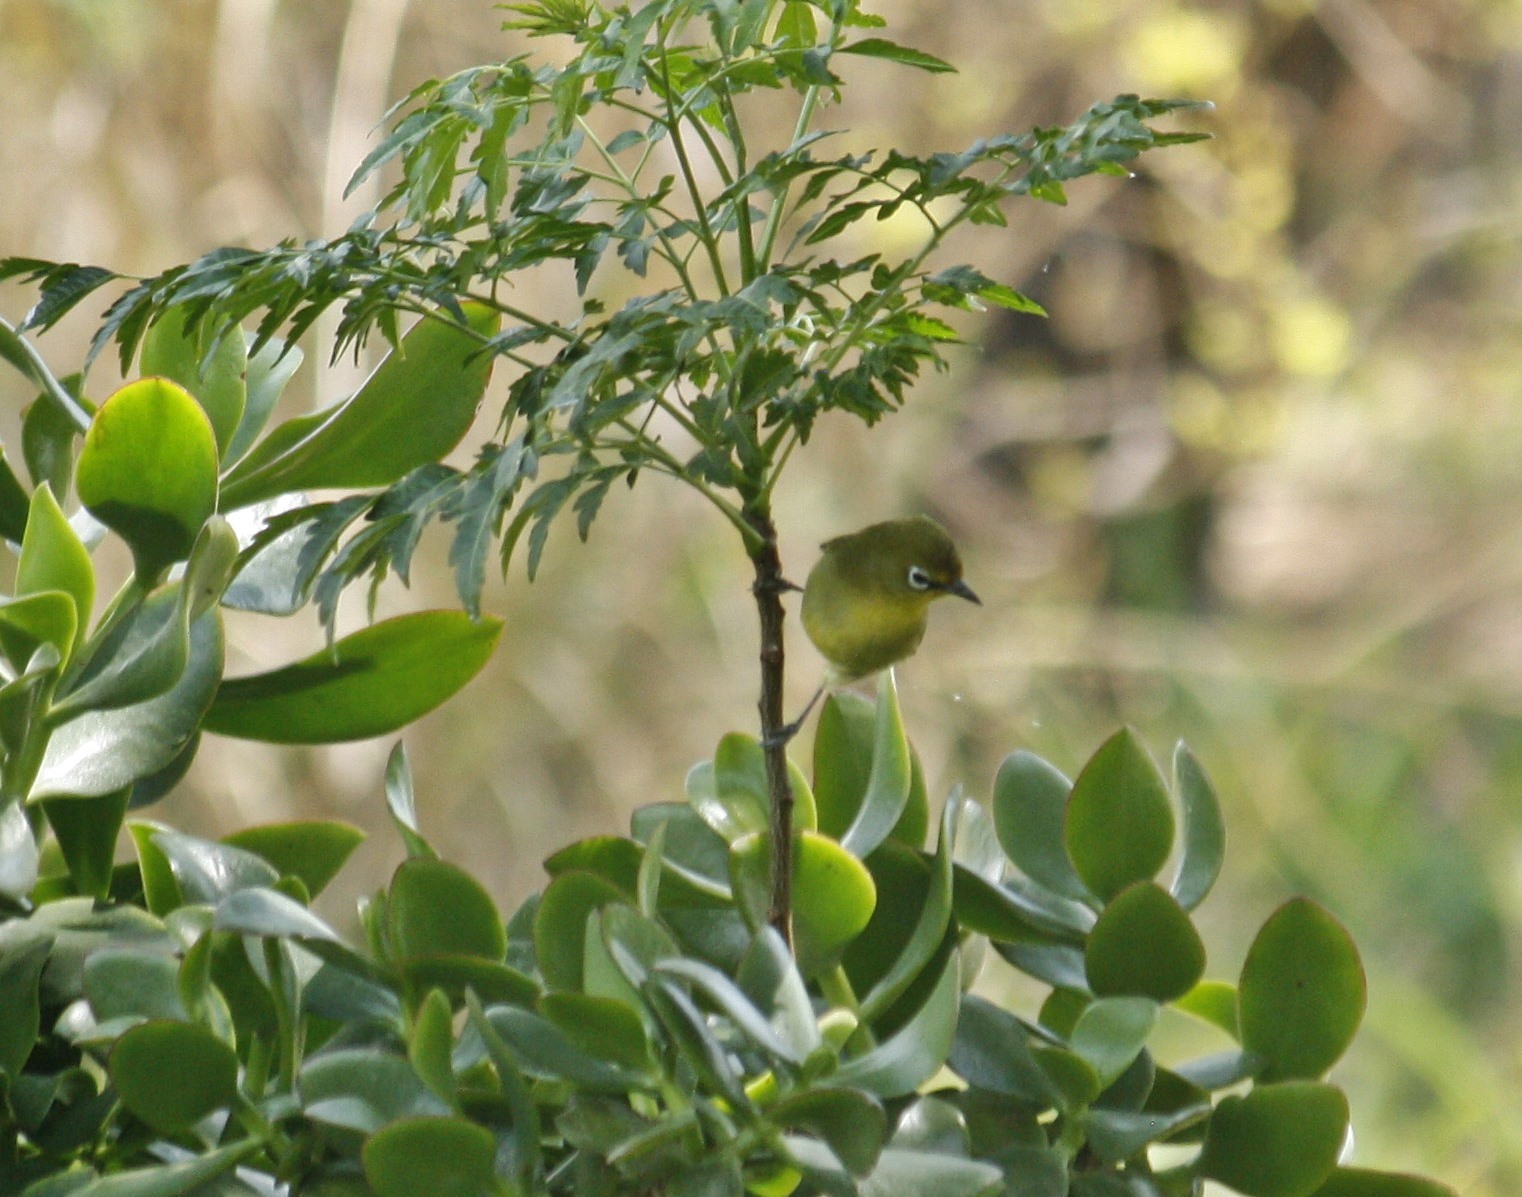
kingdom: Animalia
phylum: Chordata
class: Aves
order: Passeriformes
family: Zosteropidae
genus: Zosterops
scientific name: Zosterops virens
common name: Cape white-eye
